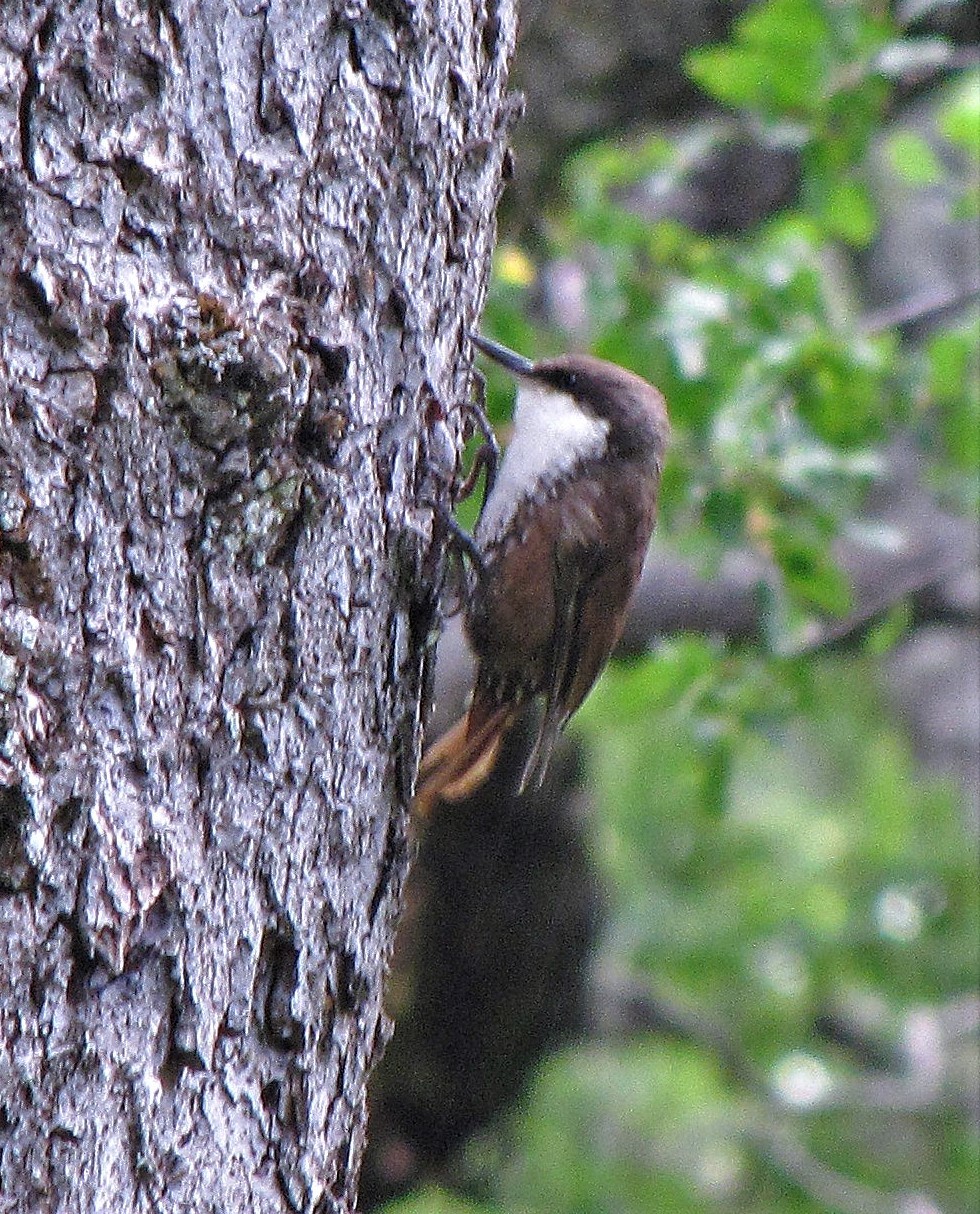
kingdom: Animalia
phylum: Chordata
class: Aves
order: Passeriformes
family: Furnariidae
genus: Pygarrhichas
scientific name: Pygarrhichas albogularis
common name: White-throated treerunner
